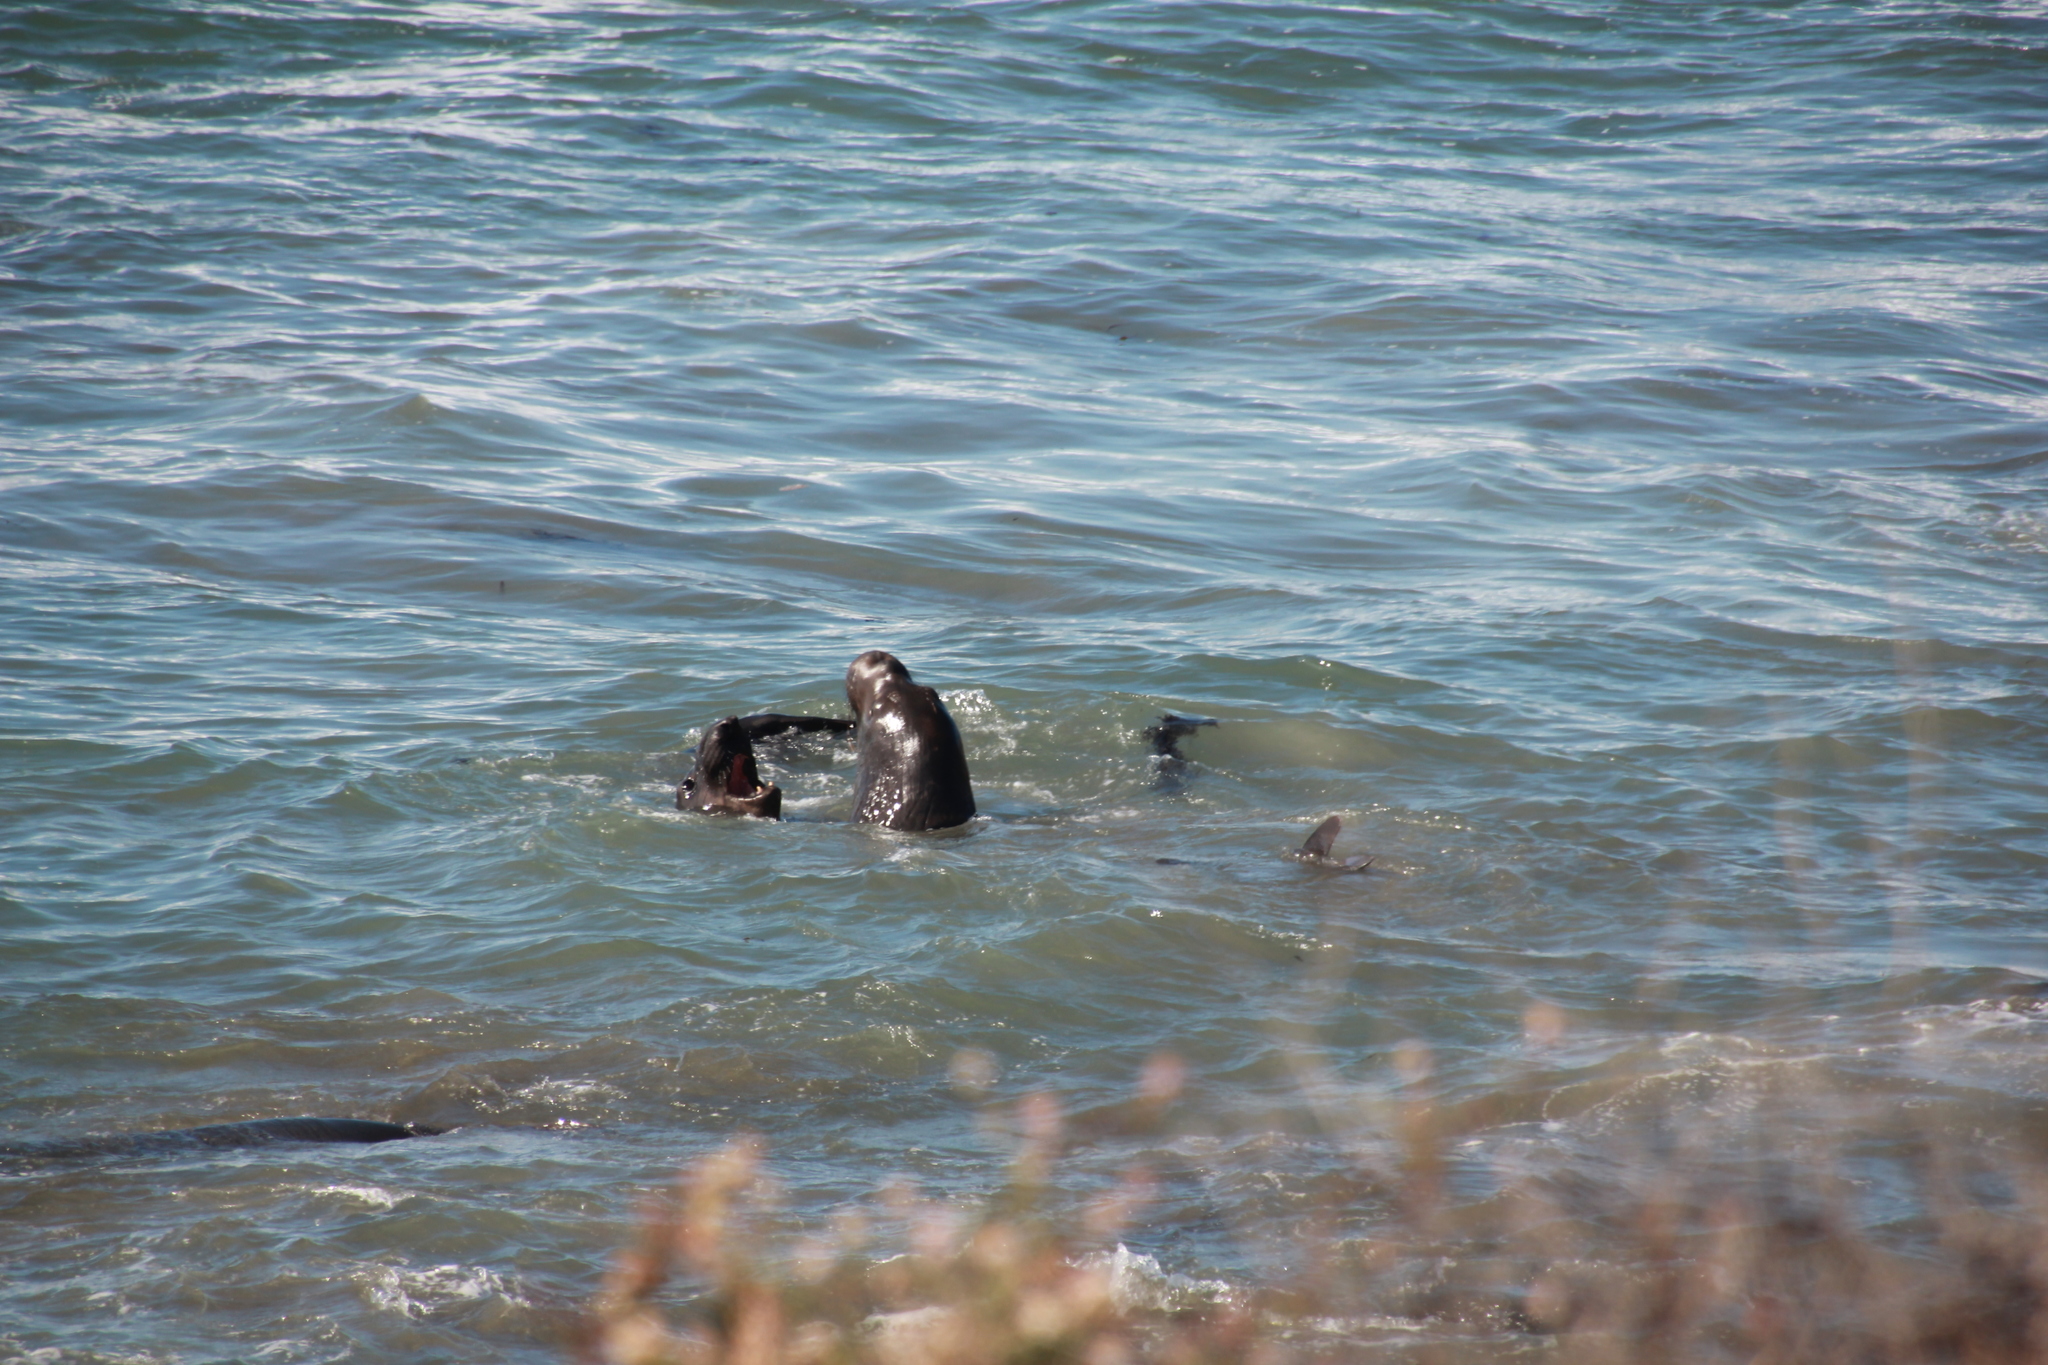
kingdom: Animalia
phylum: Chordata
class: Mammalia
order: Carnivora
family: Phocidae
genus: Mirounga
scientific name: Mirounga angustirostris
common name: Northern elephant seal
